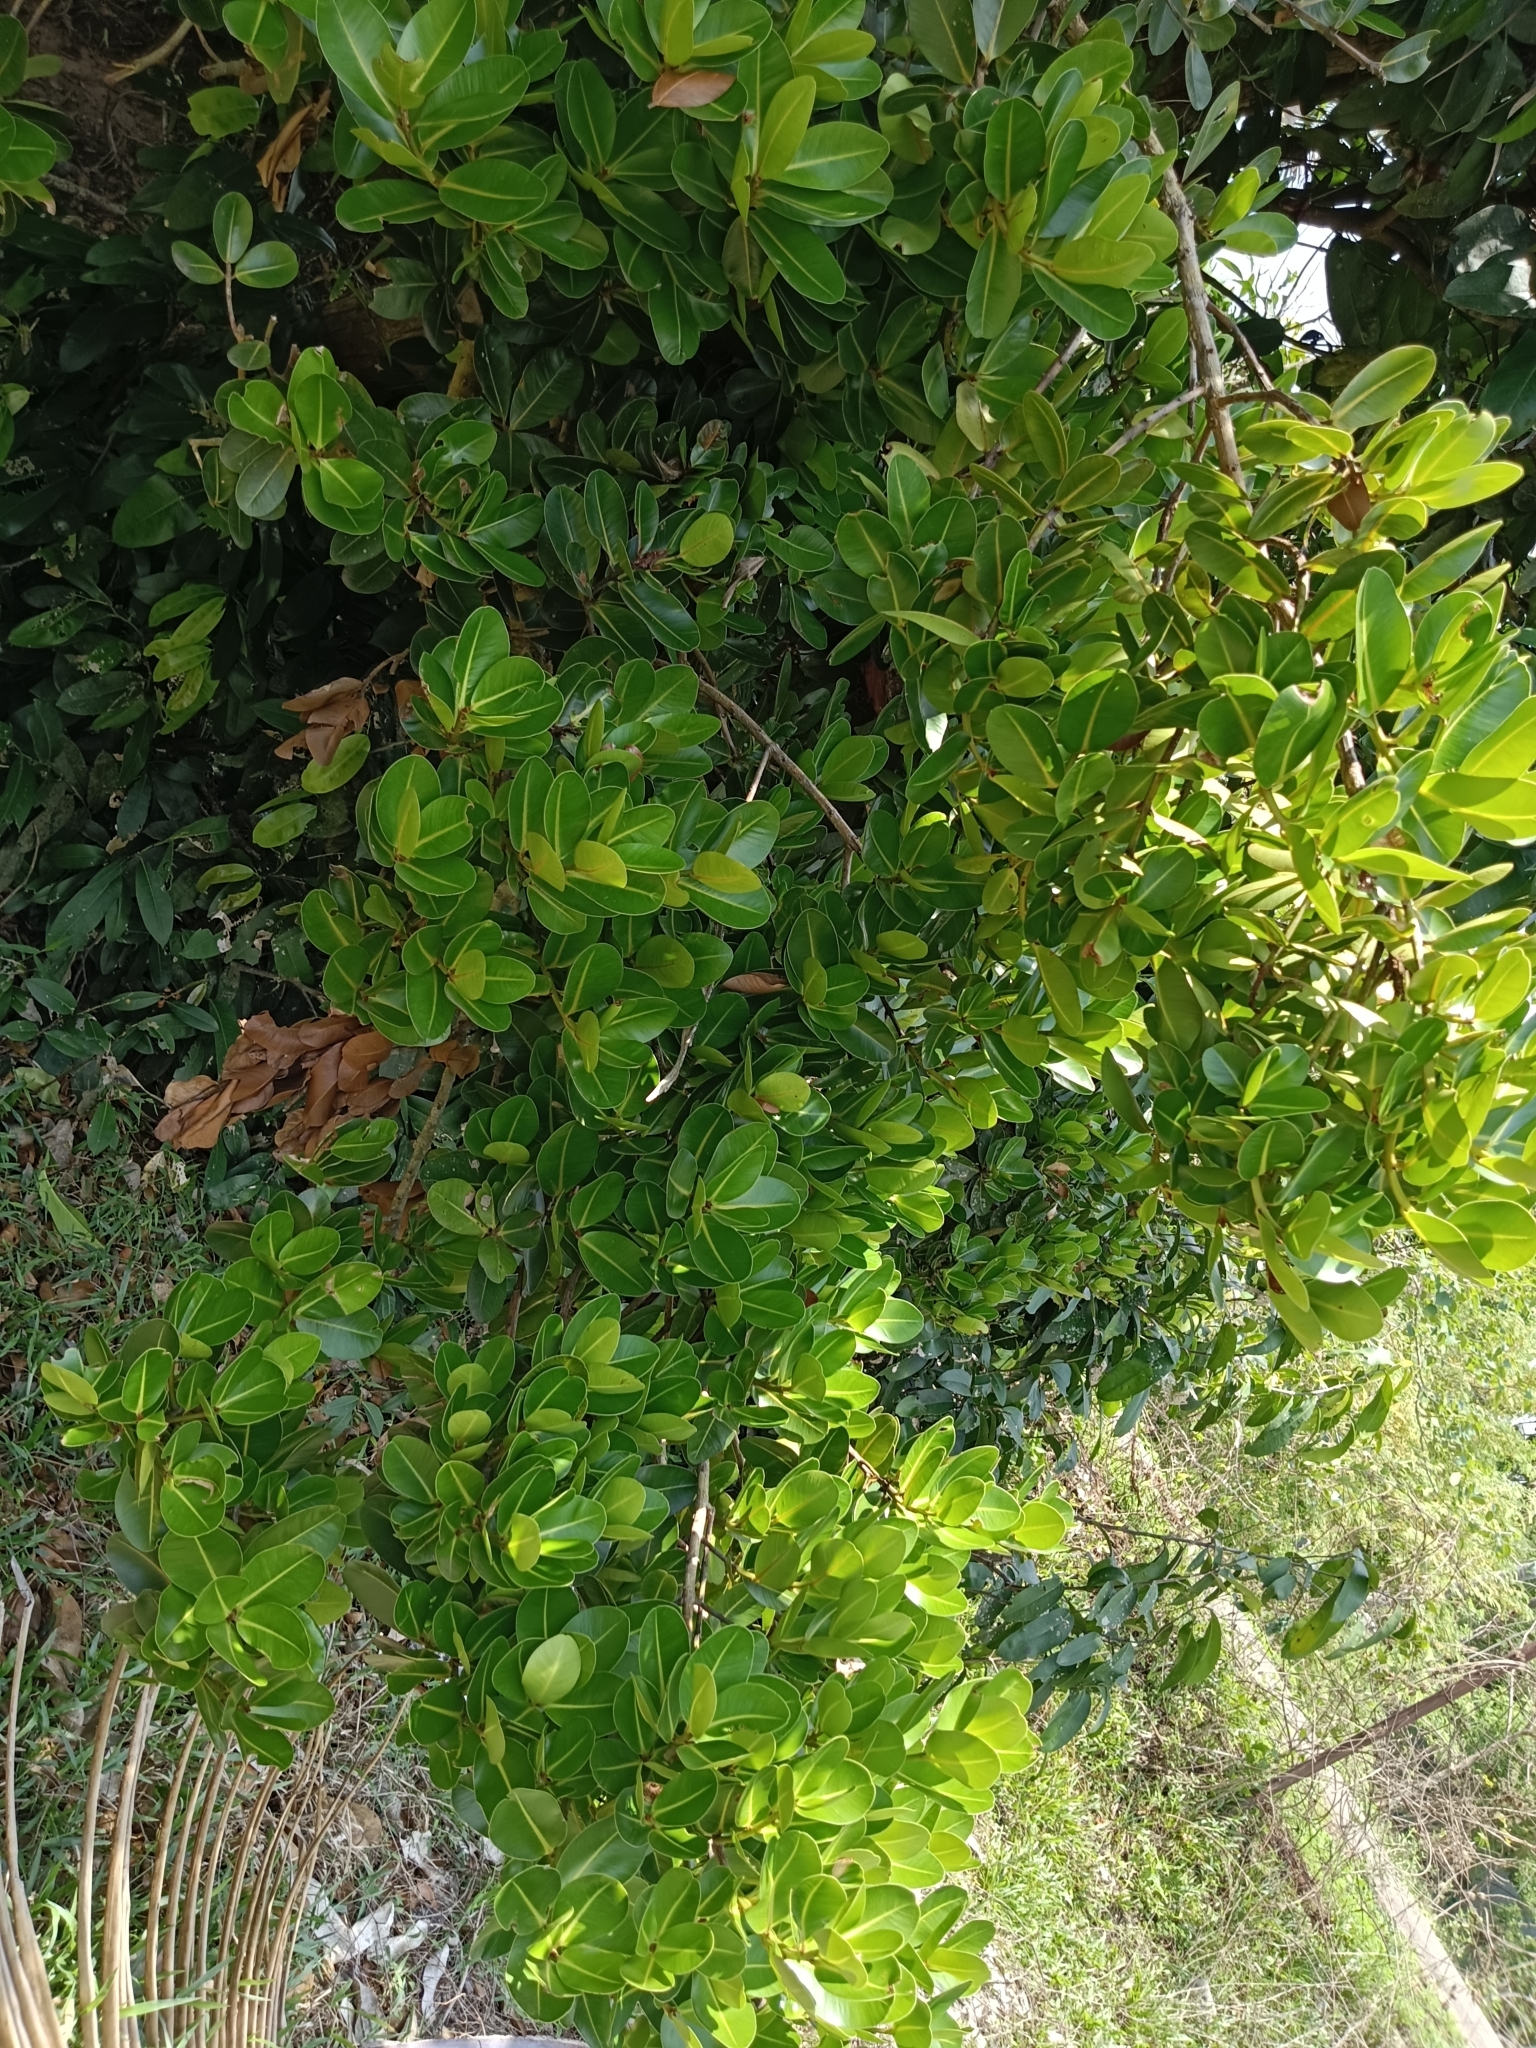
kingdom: Plantae
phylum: Tracheophyta
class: Magnoliopsida
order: Malpighiales
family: Calophyllaceae
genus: Calophyllum
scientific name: Calophyllum apetalum
